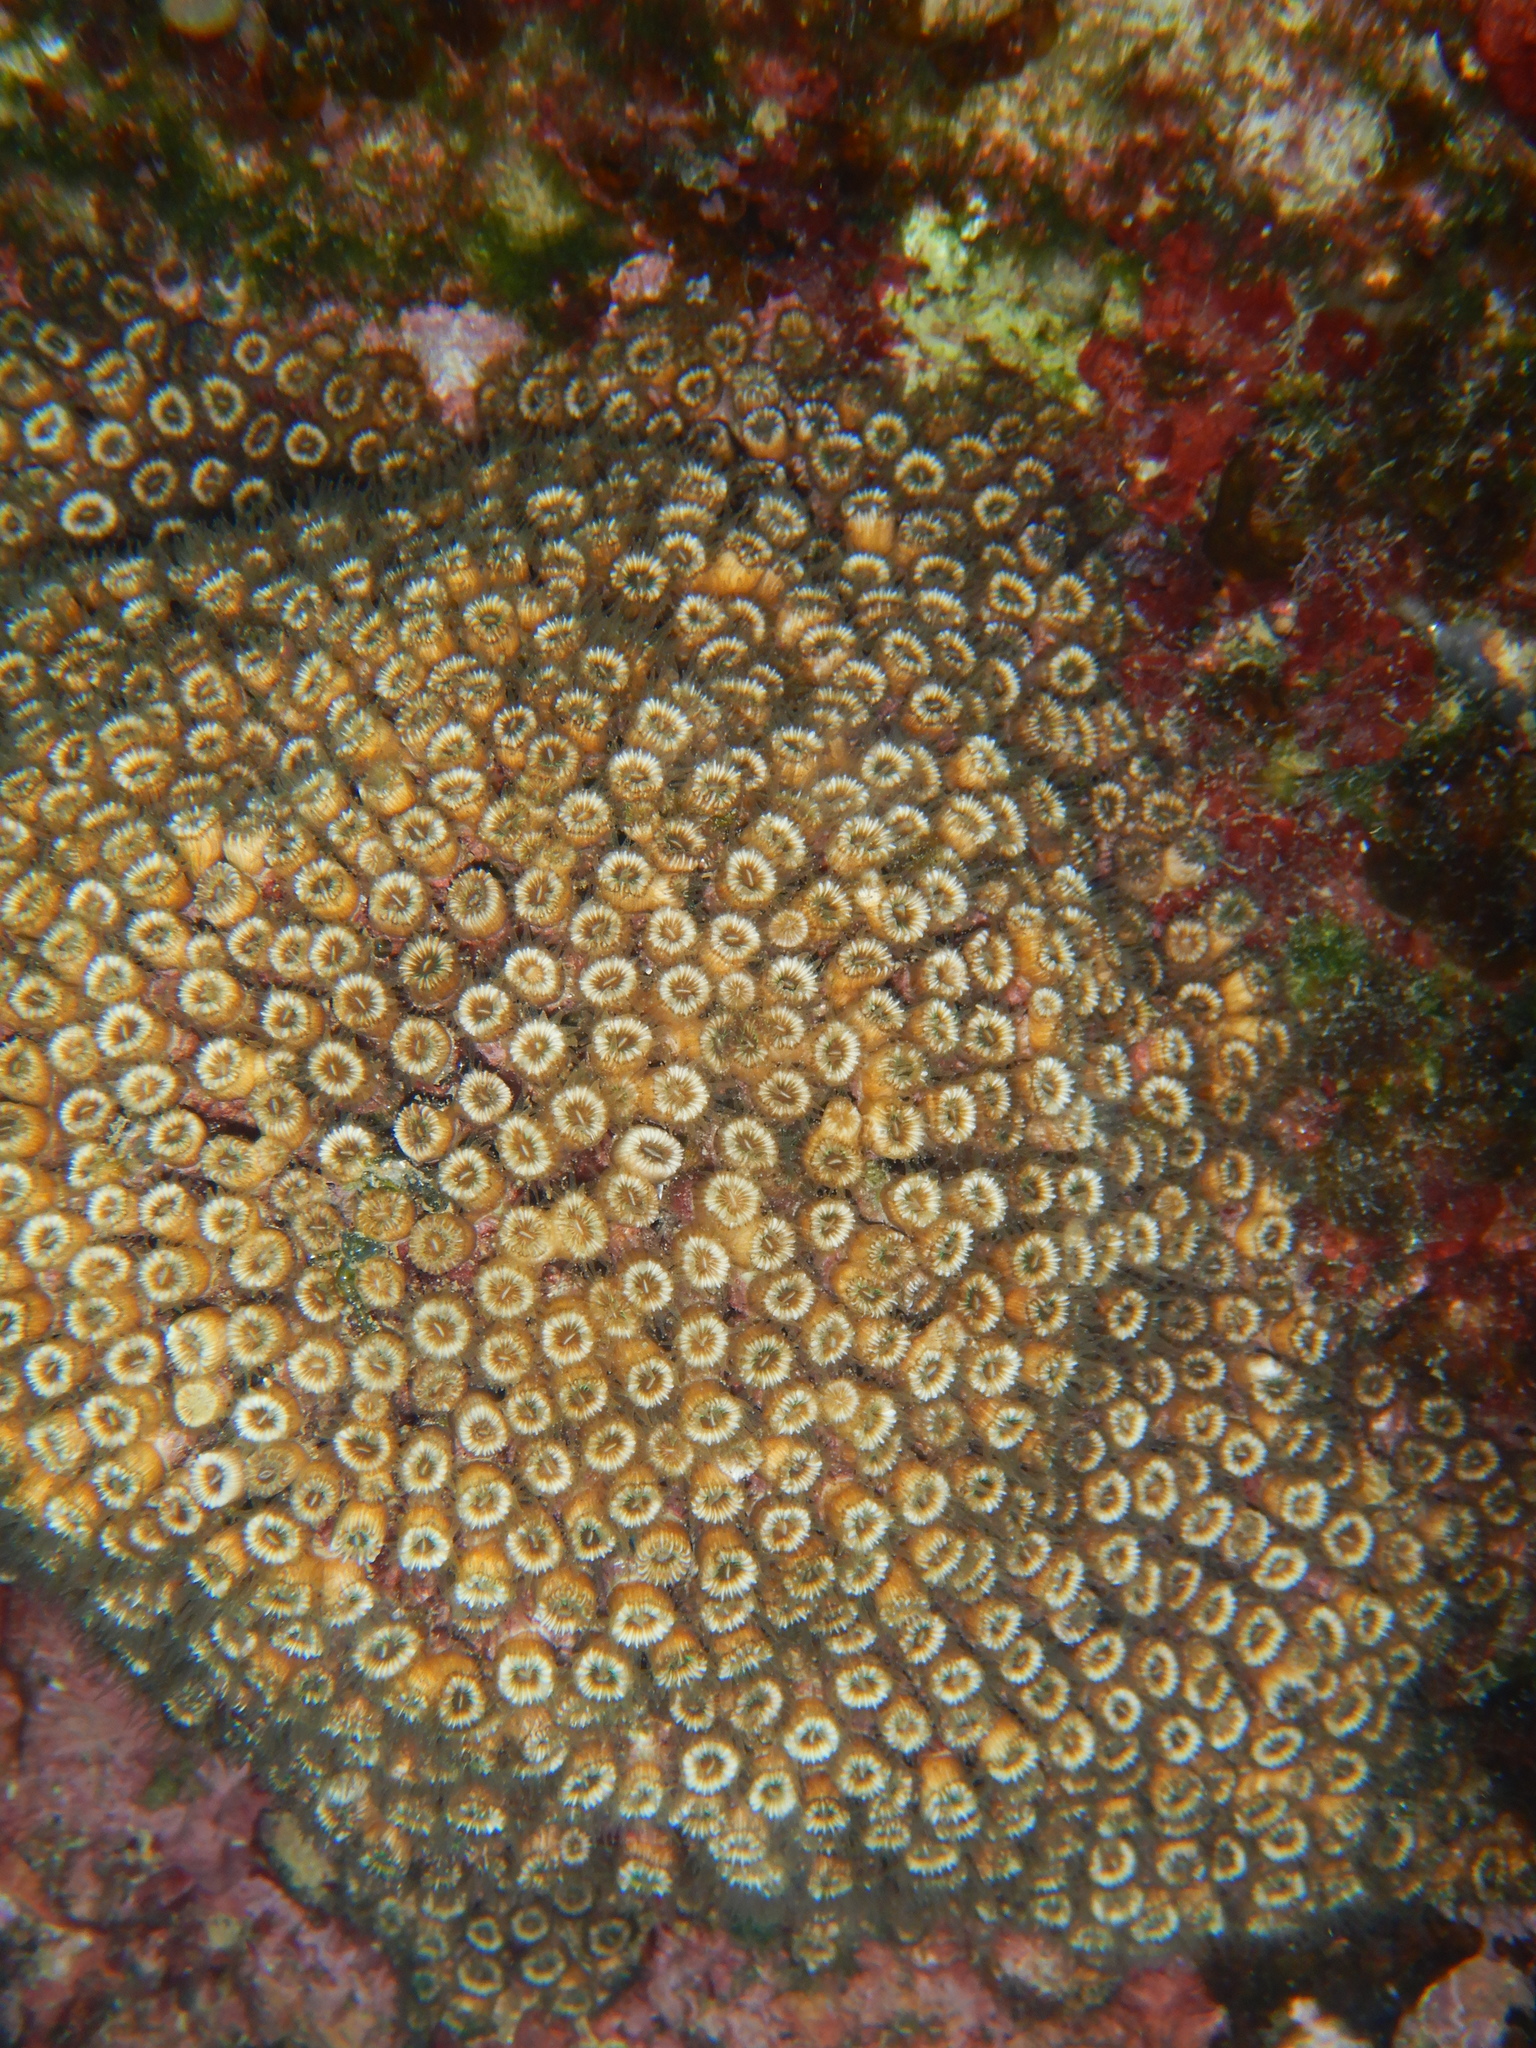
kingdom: Animalia
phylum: Cnidaria
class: Anthozoa
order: Scleractinia
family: Cladocoridae
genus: Cladocora
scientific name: Cladocora caespitosa
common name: Cladocora
